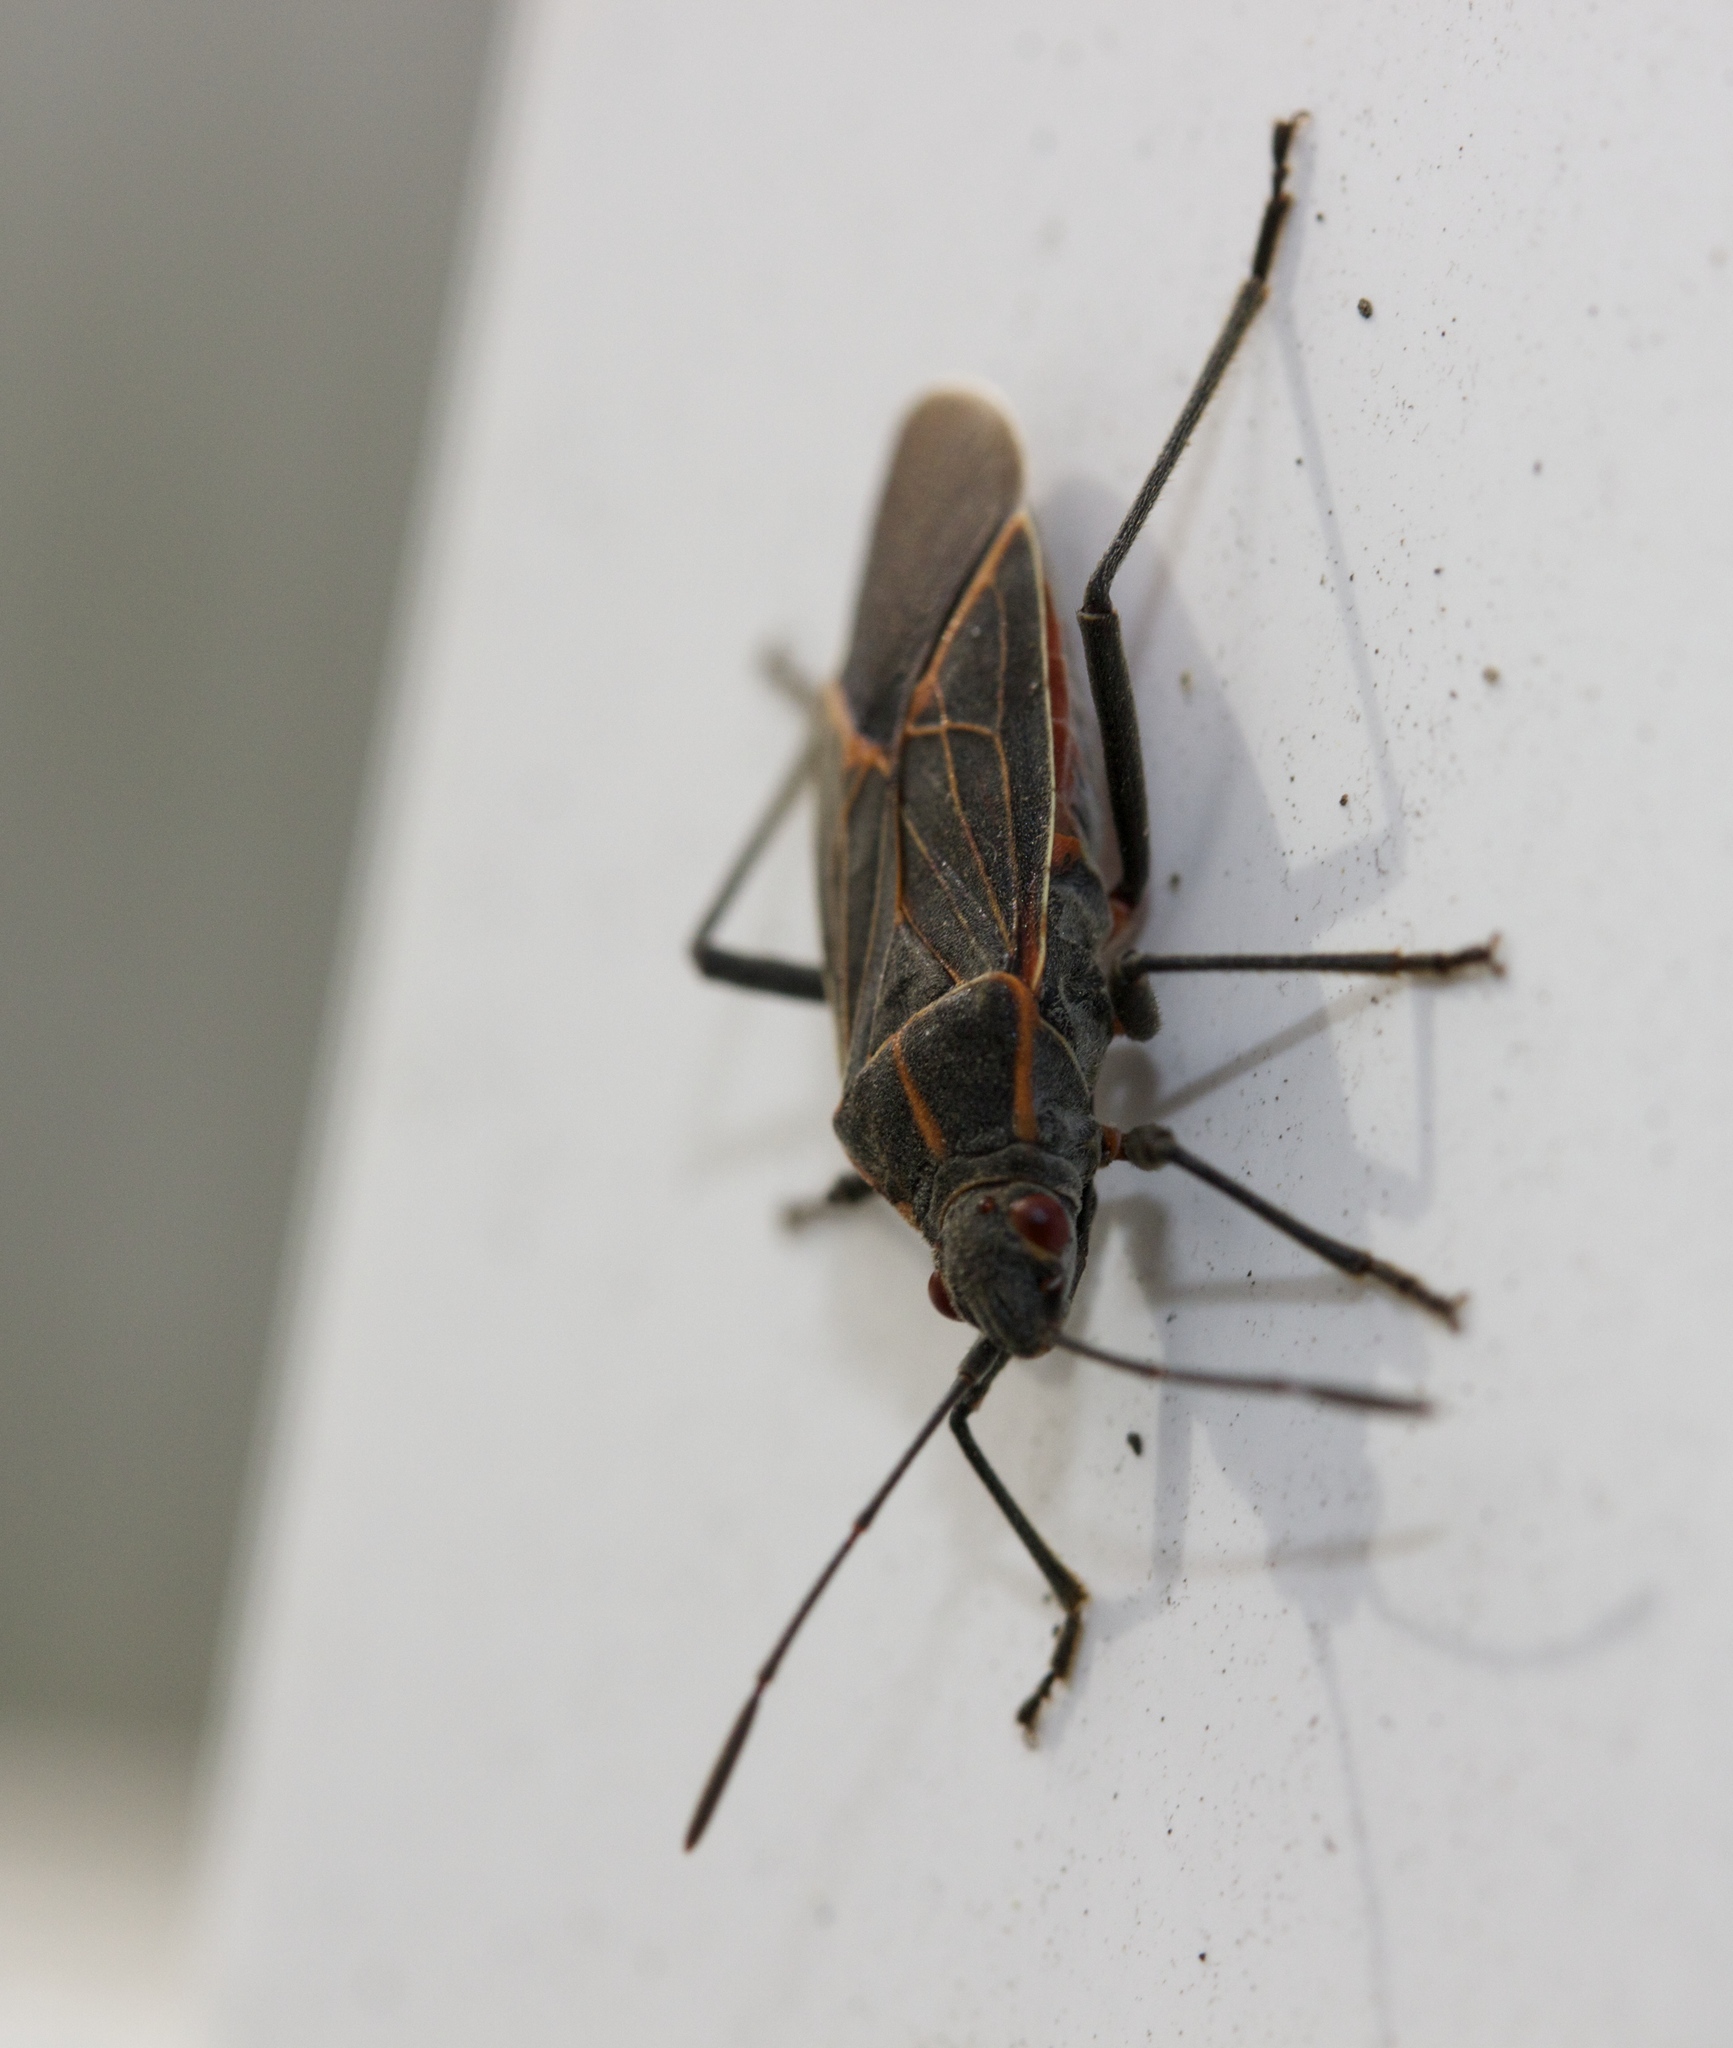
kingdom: Animalia
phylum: Arthropoda
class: Insecta
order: Hemiptera
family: Rhopalidae
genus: Boisea
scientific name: Boisea rubrolineata
